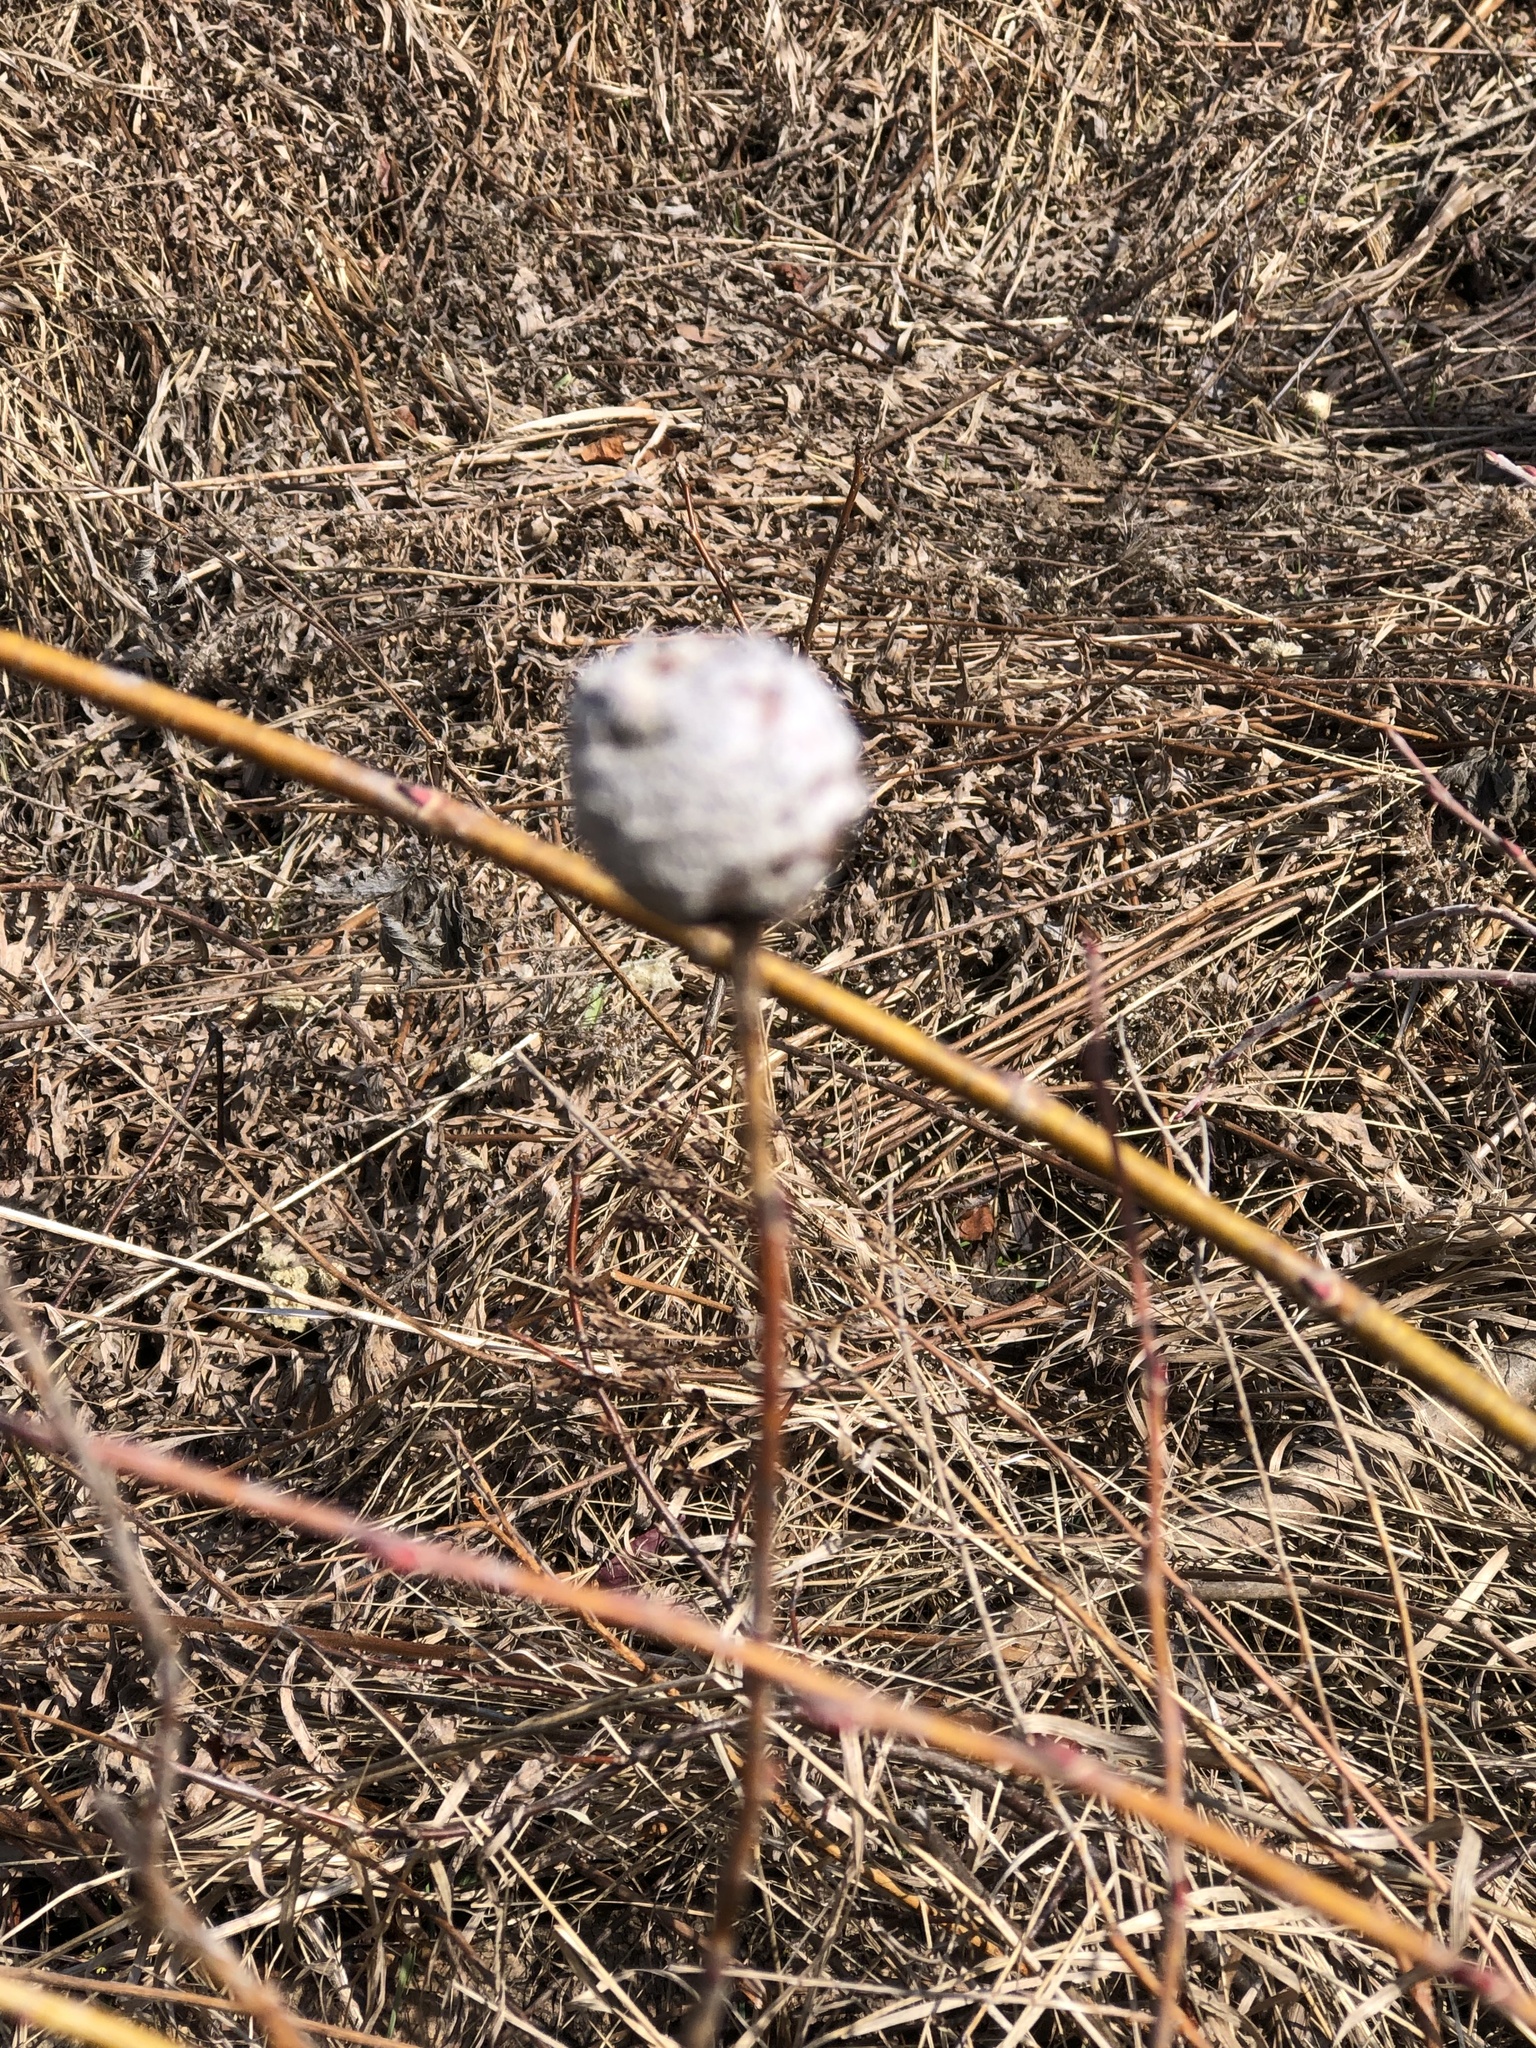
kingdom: Animalia
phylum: Arthropoda
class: Insecta
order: Diptera
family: Cecidomyiidae
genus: Rabdophaga
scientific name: Rabdophaga strobiloides
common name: Willow pinecone gall midge
